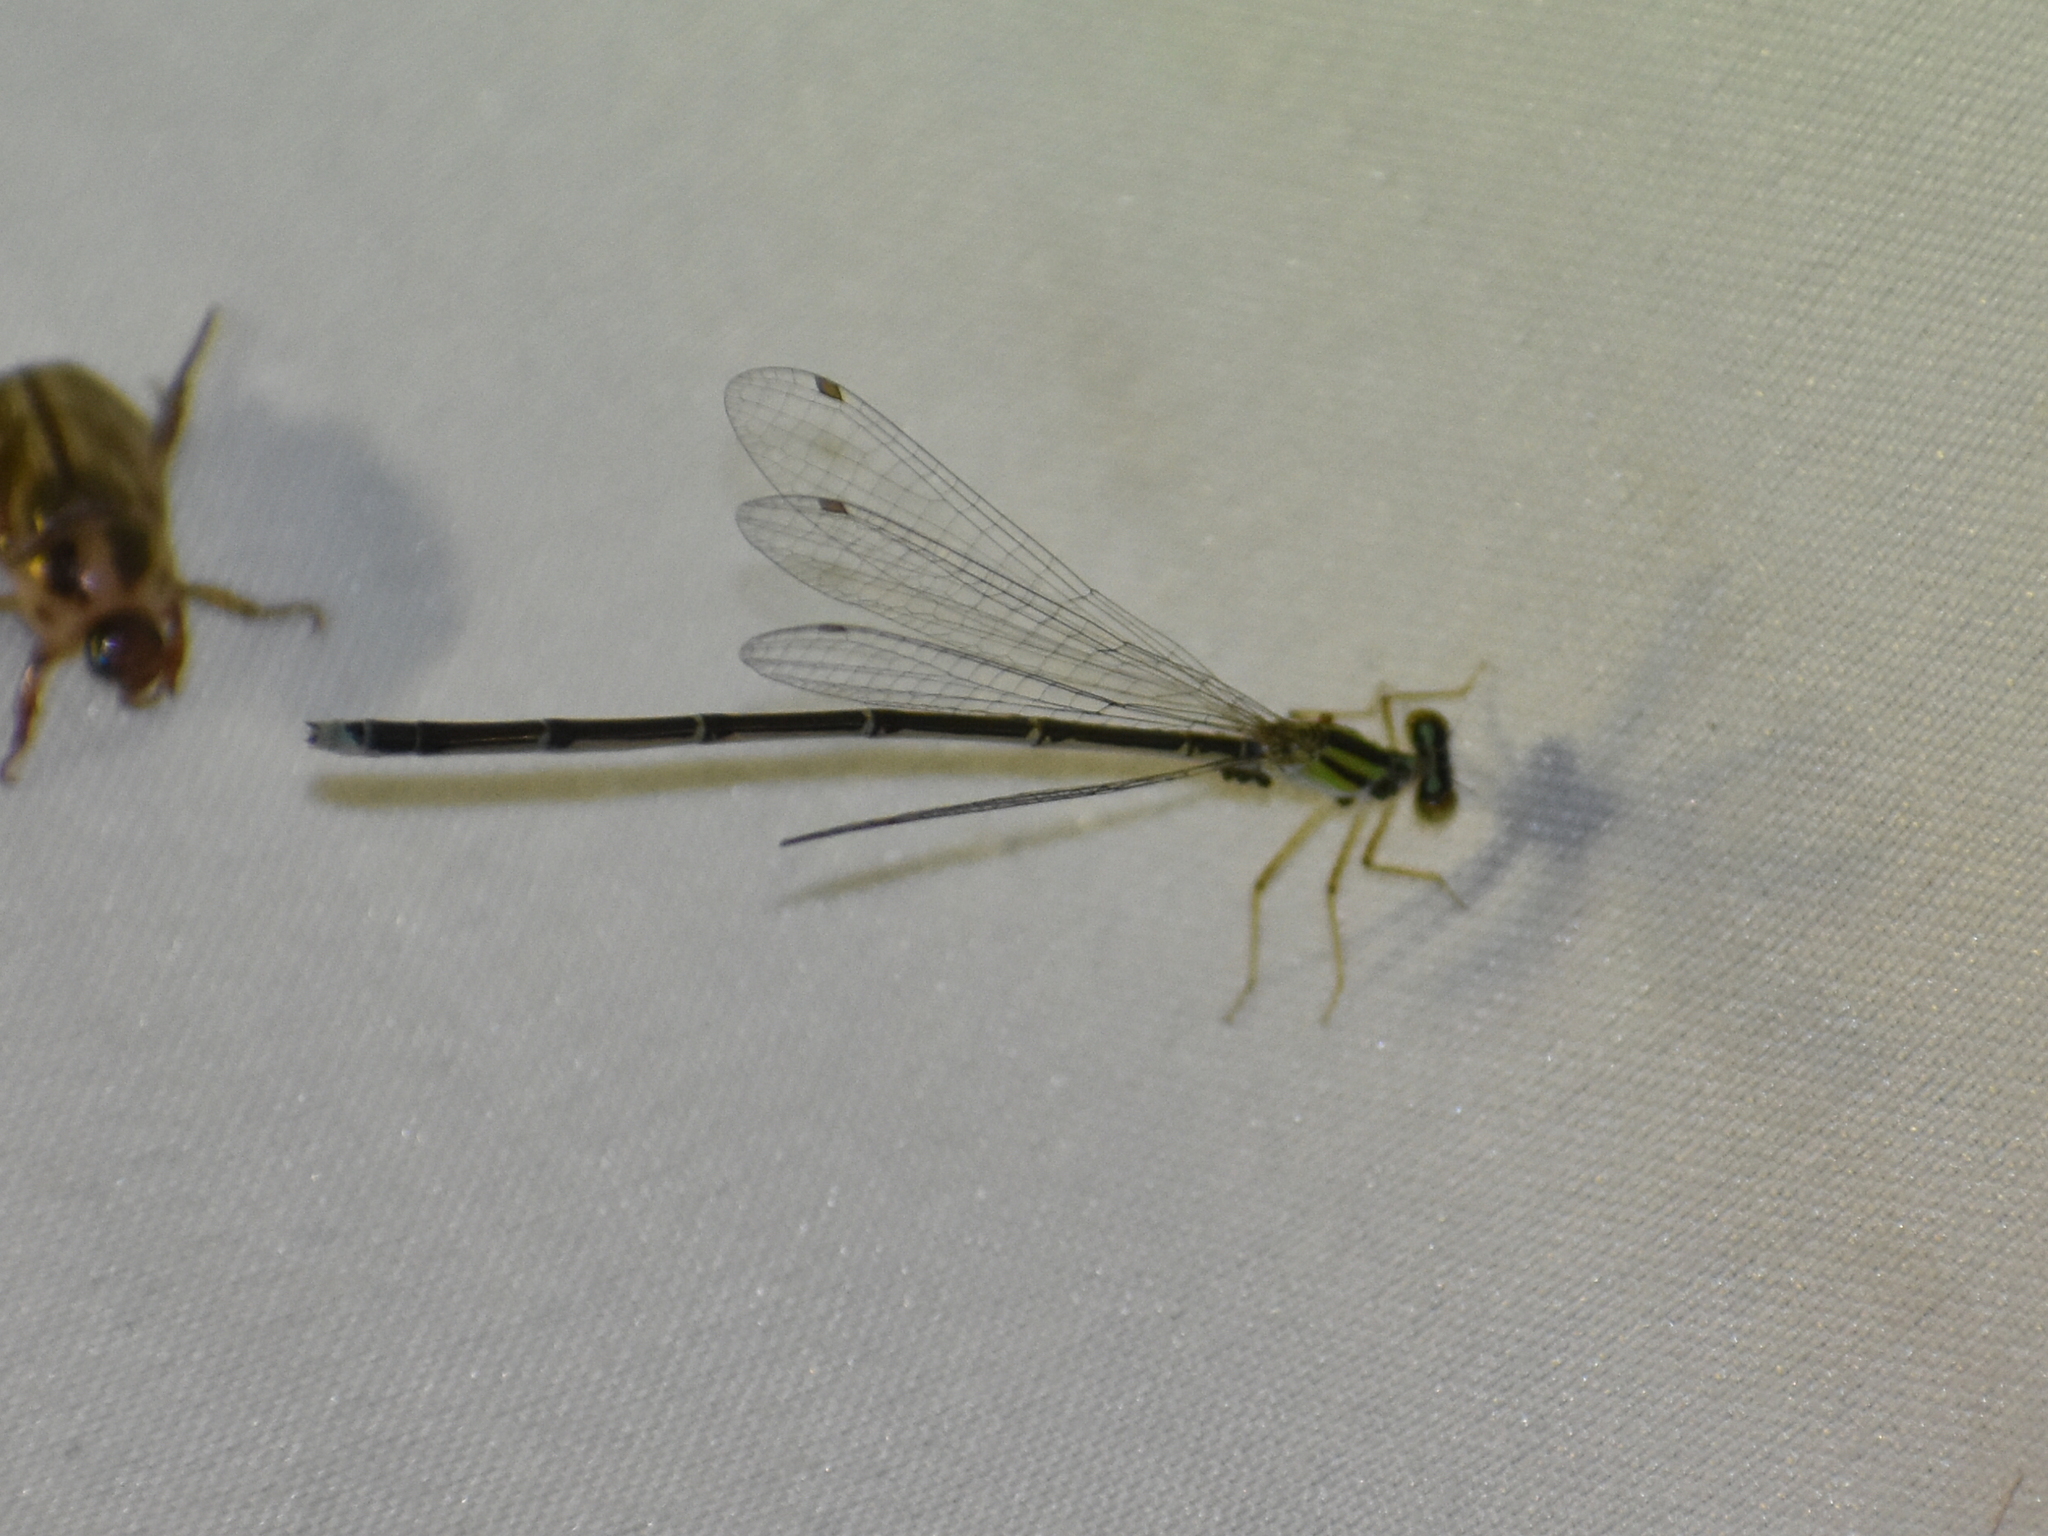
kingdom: Animalia
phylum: Arthropoda
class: Insecta
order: Odonata
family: Coenagrionidae
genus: Enallagma
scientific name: Enallagma signatum
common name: Orange bluet
